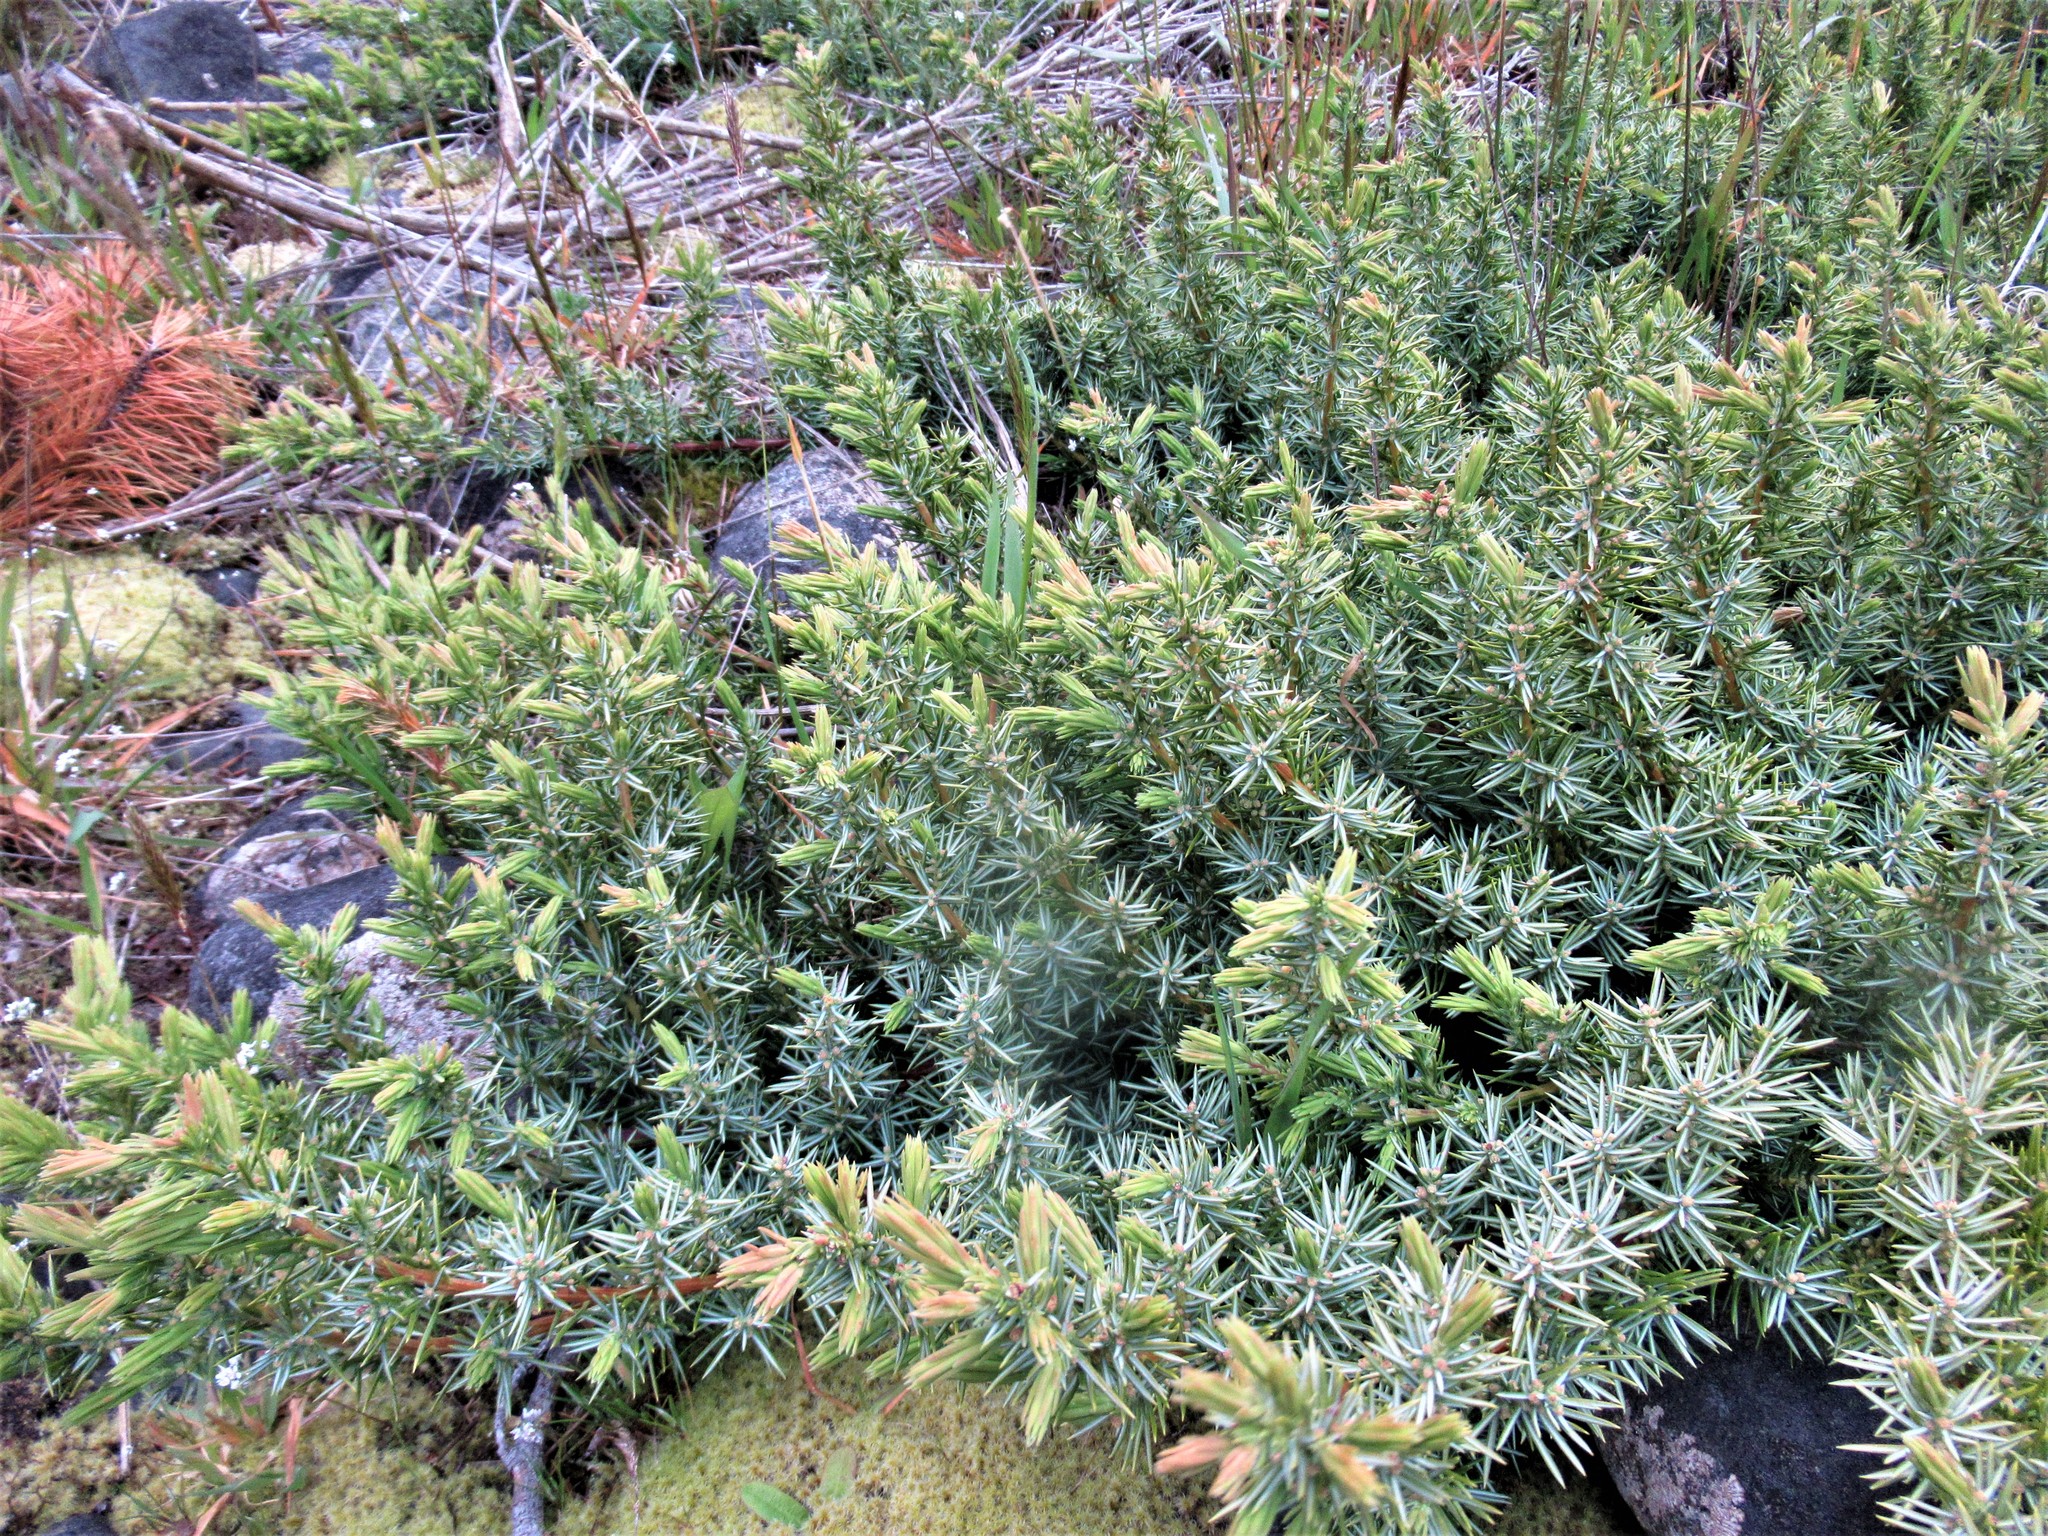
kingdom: Plantae
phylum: Tracheophyta
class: Pinopsida
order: Pinales
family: Cupressaceae
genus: Juniperus
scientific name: Juniperus rigida
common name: Needle juniper
